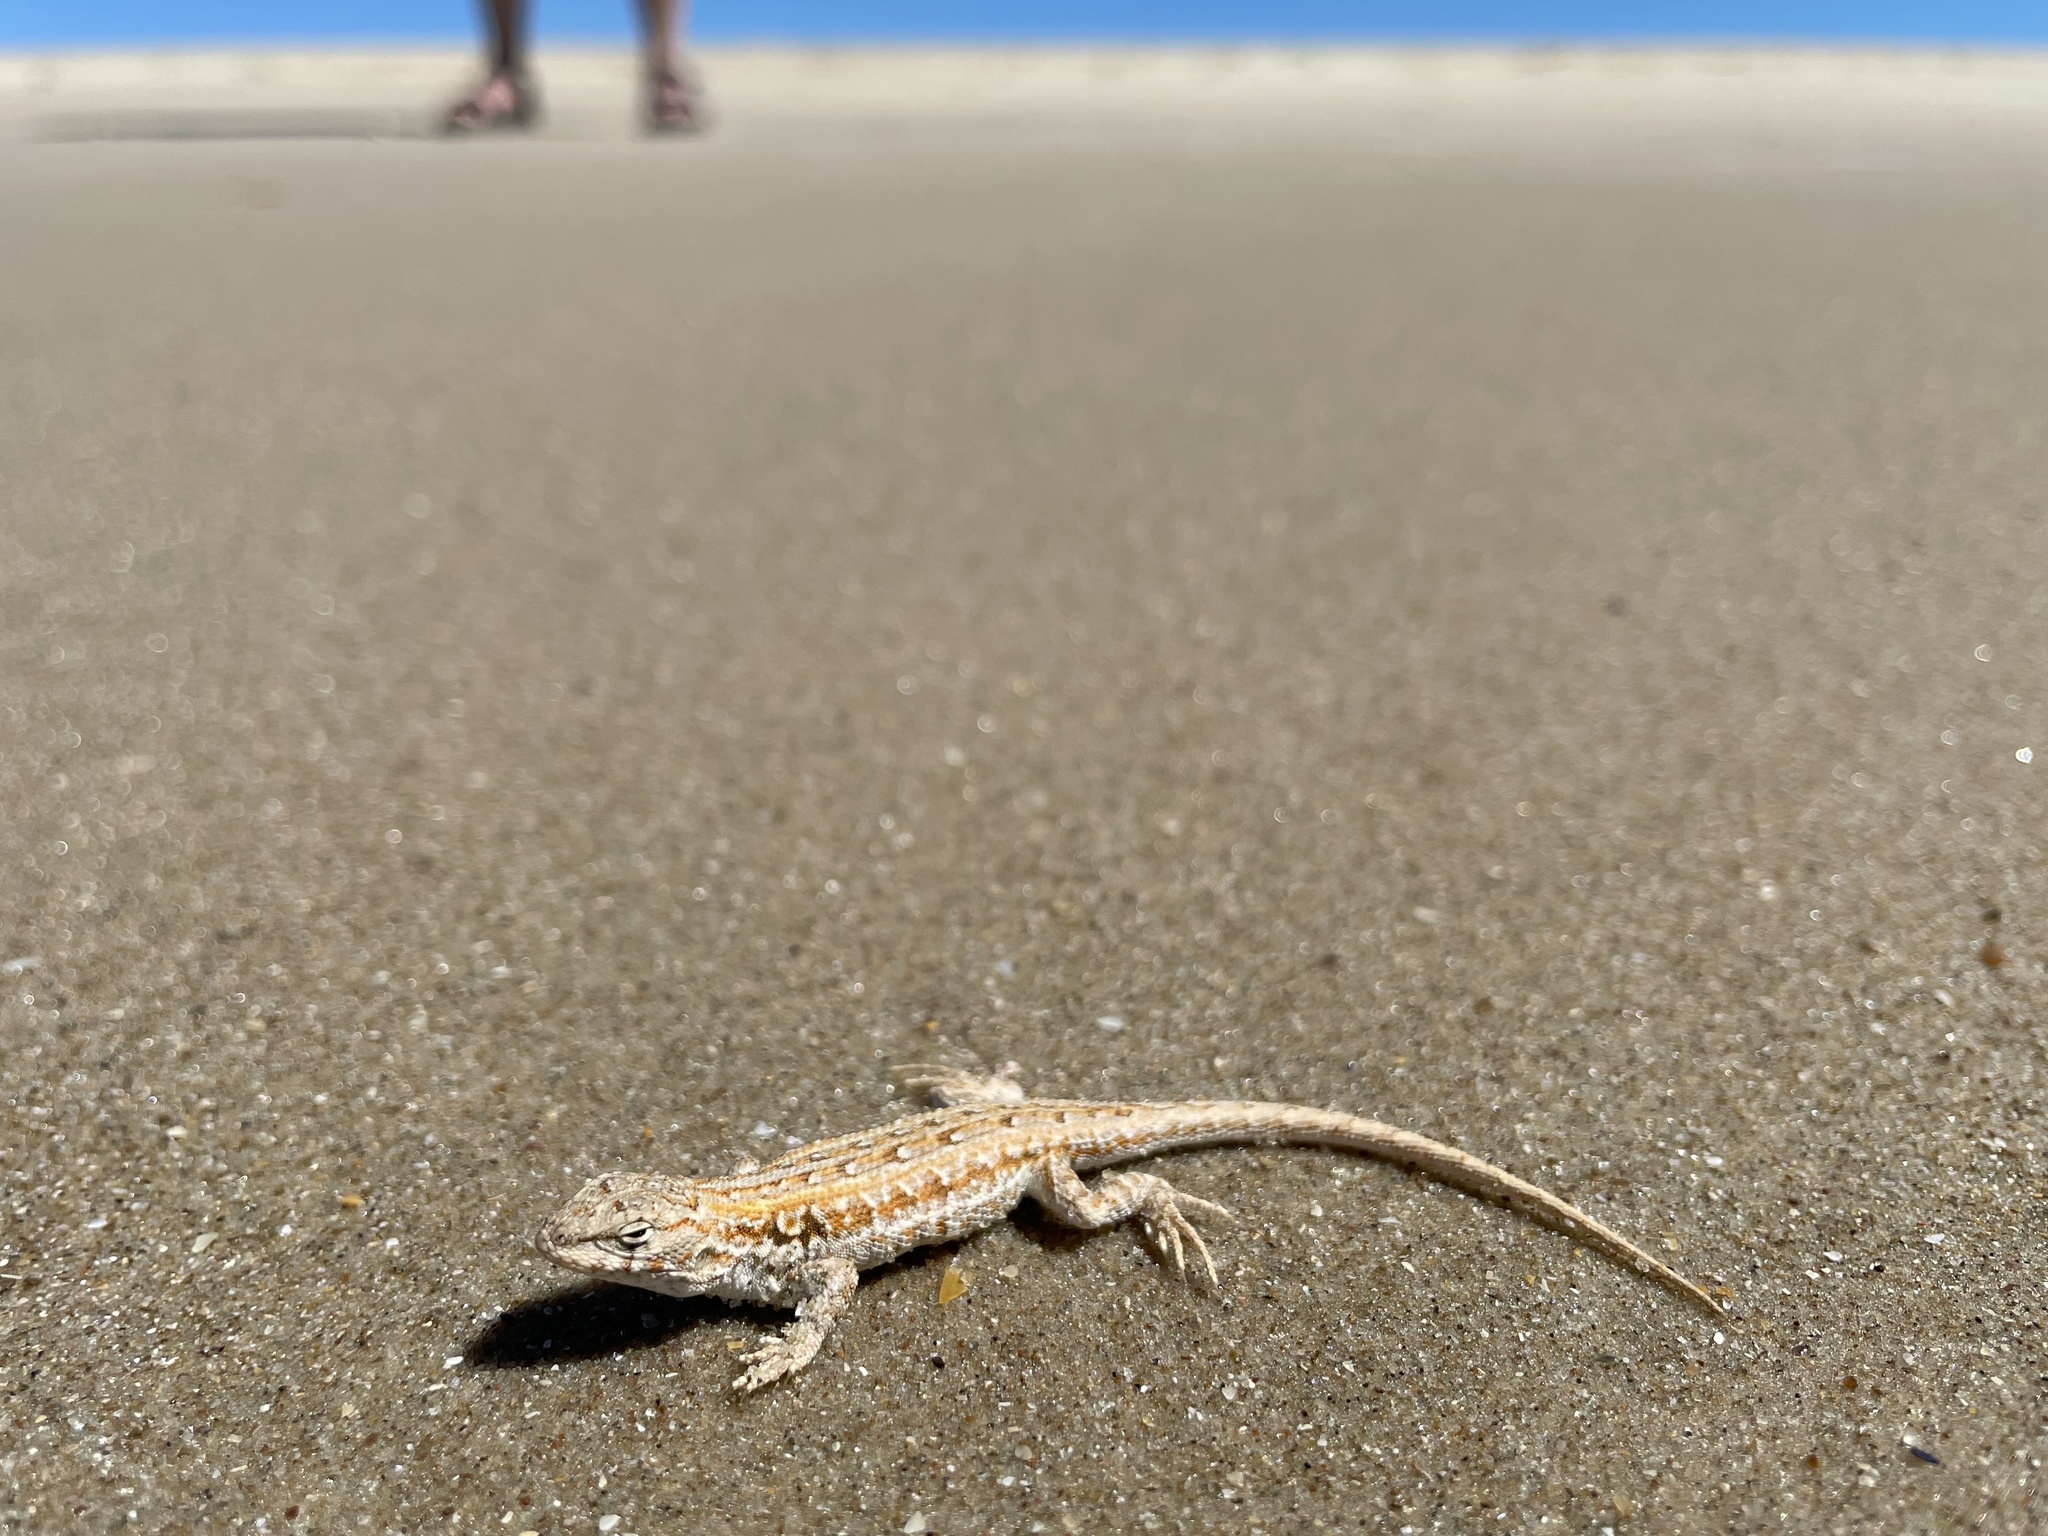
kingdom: Animalia
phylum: Chordata
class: Squamata
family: Liolaemidae
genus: Liolaemus
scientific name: Liolaemus wiegmannii
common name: Wiegmann's tree iguana
